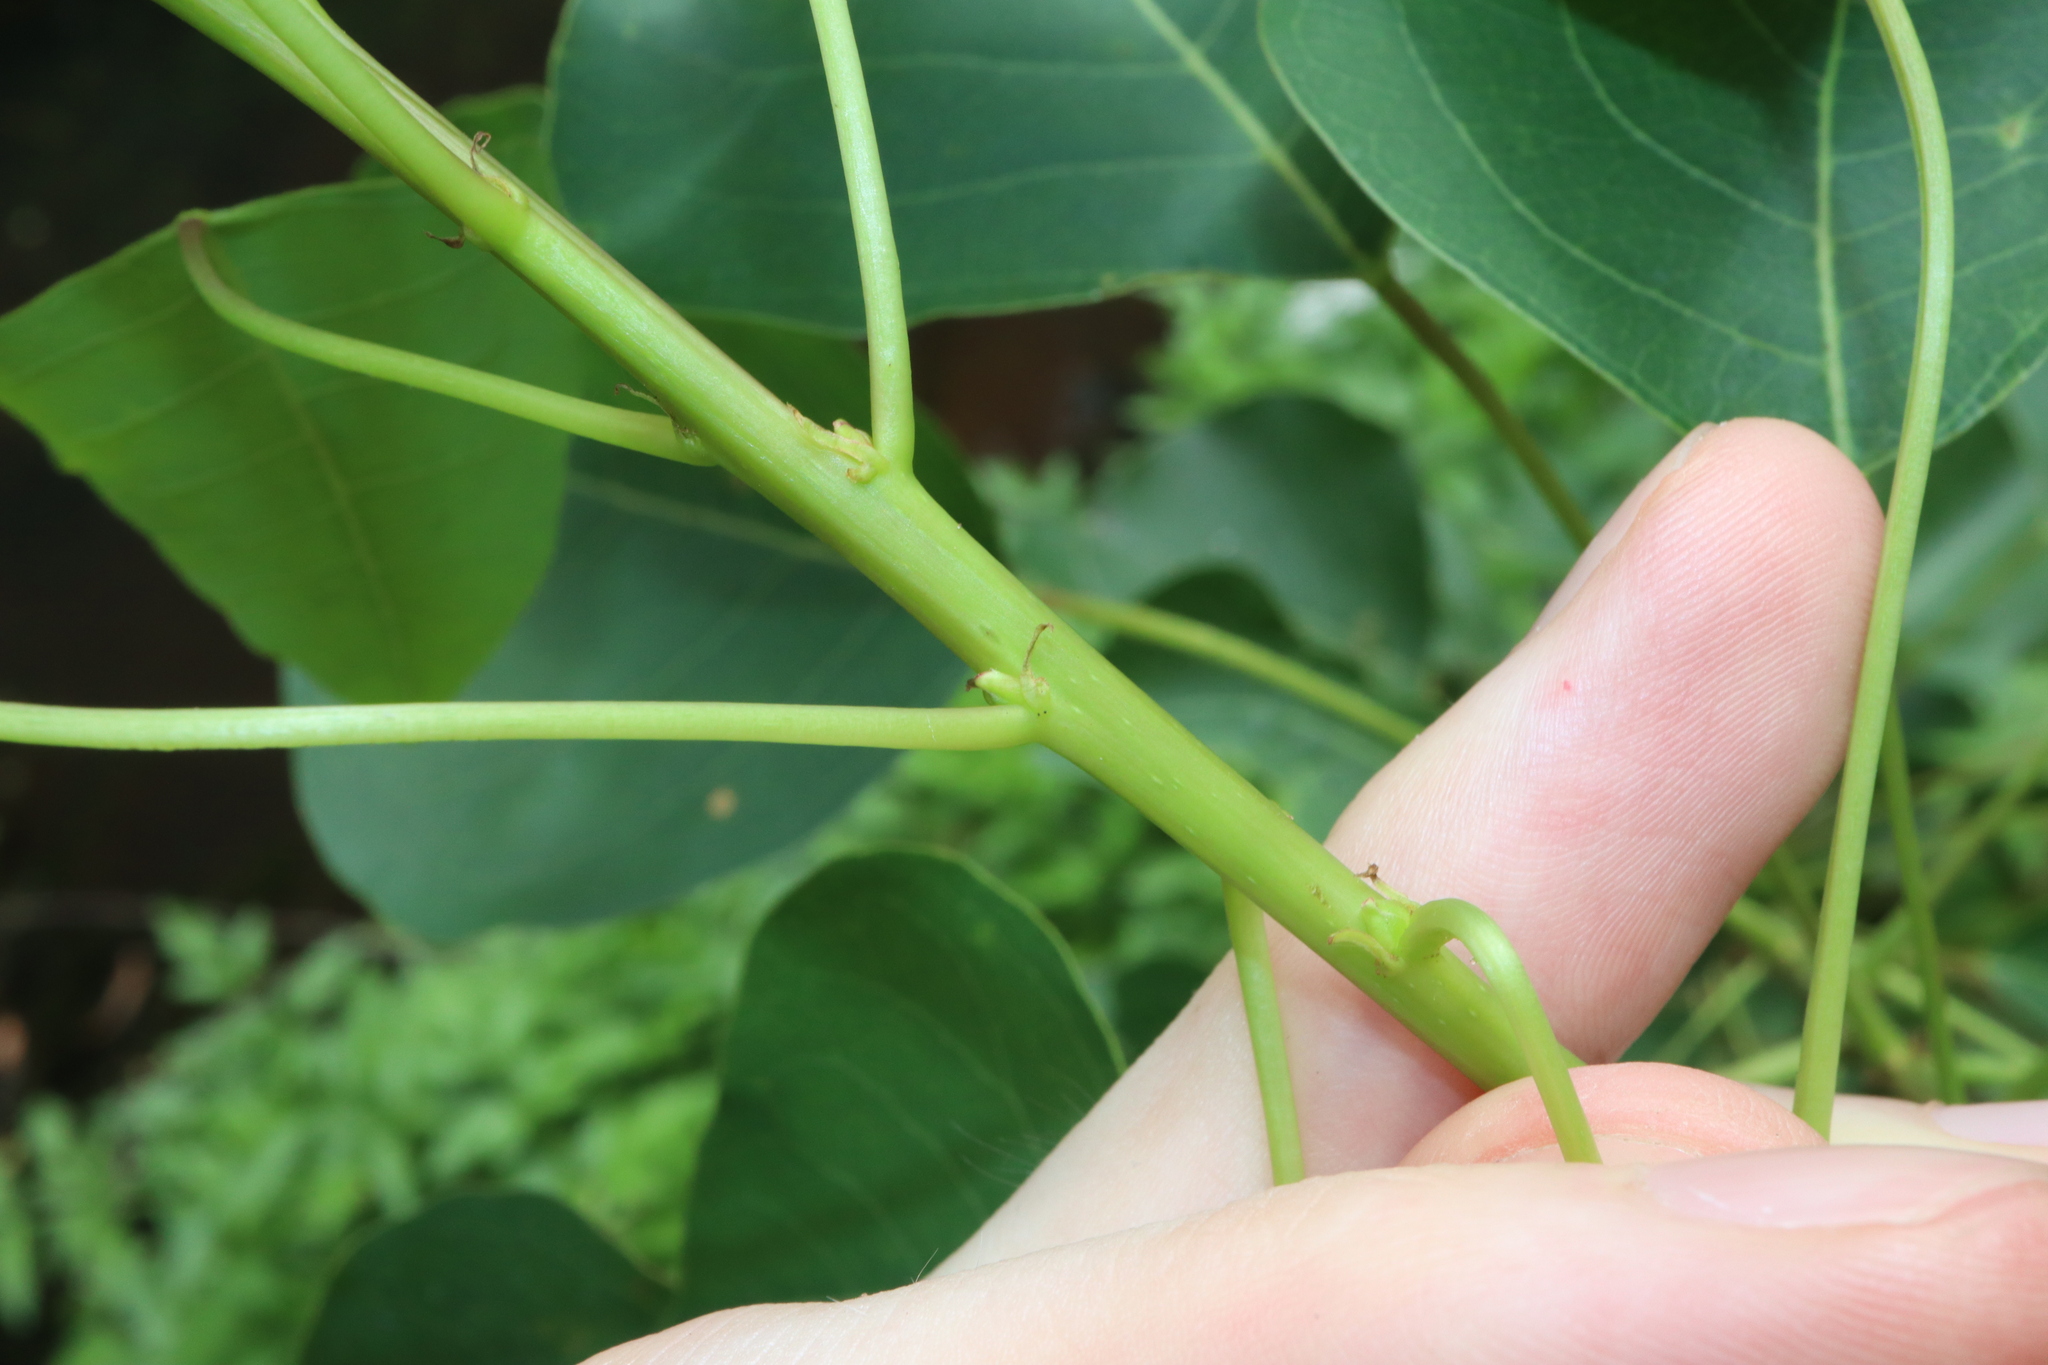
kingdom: Plantae
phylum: Tracheophyta
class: Magnoliopsida
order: Malpighiales
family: Euphorbiaceae
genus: Triadica
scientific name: Triadica sebifera
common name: Chinese tallow
